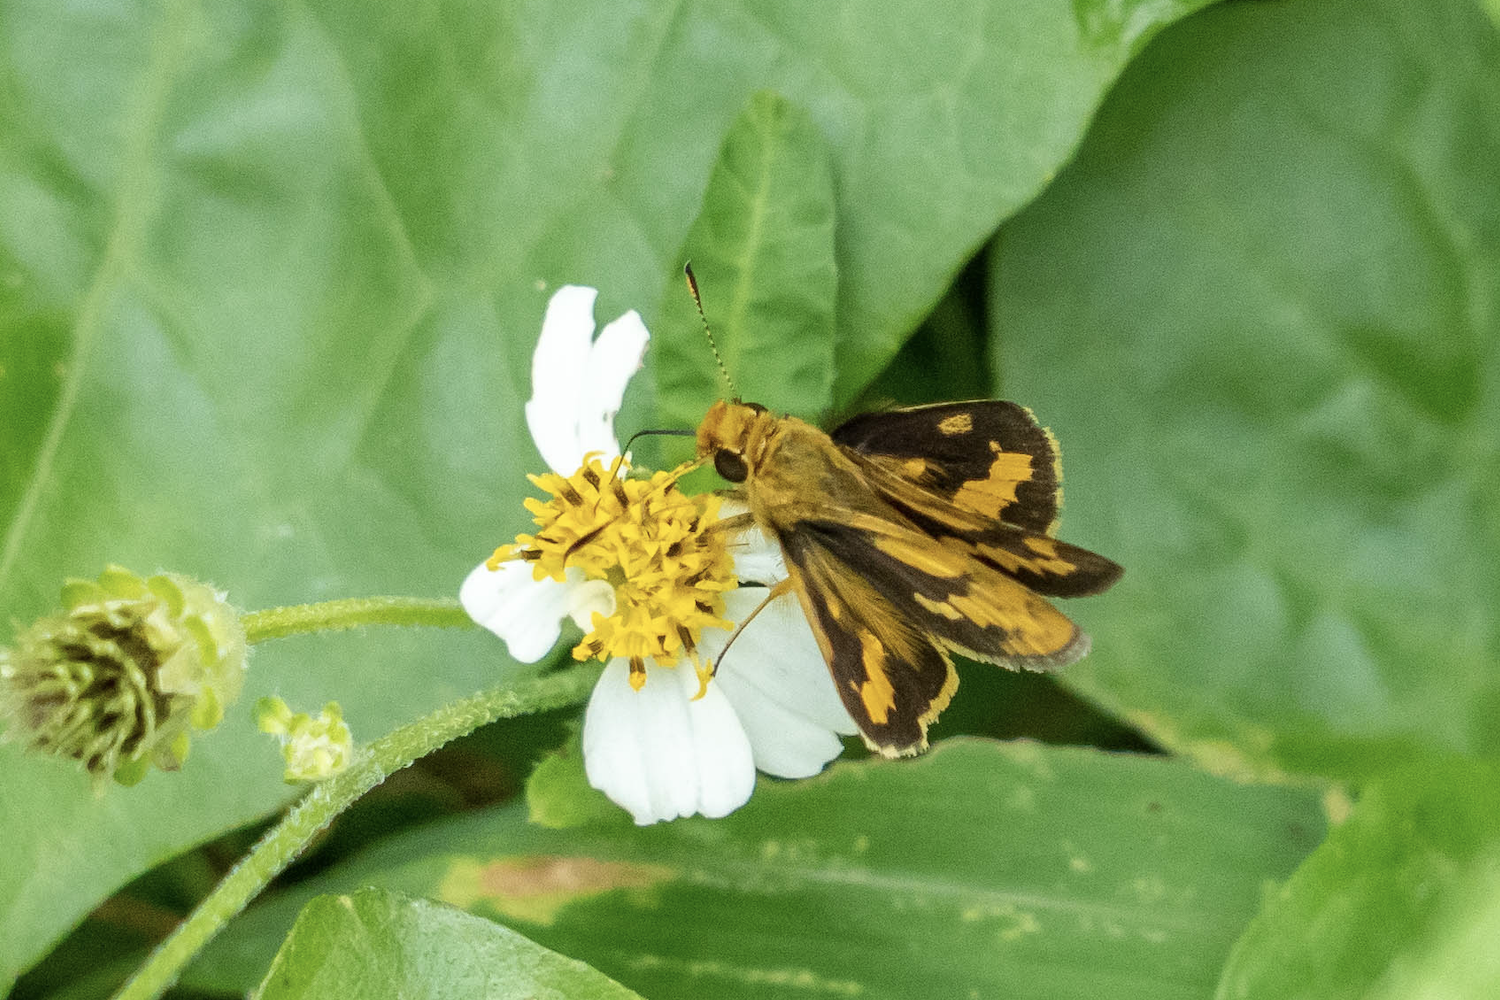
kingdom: Animalia
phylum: Arthropoda
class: Insecta
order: Lepidoptera
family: Hesperiidae
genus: Potanthus
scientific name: Potanthus confucius
